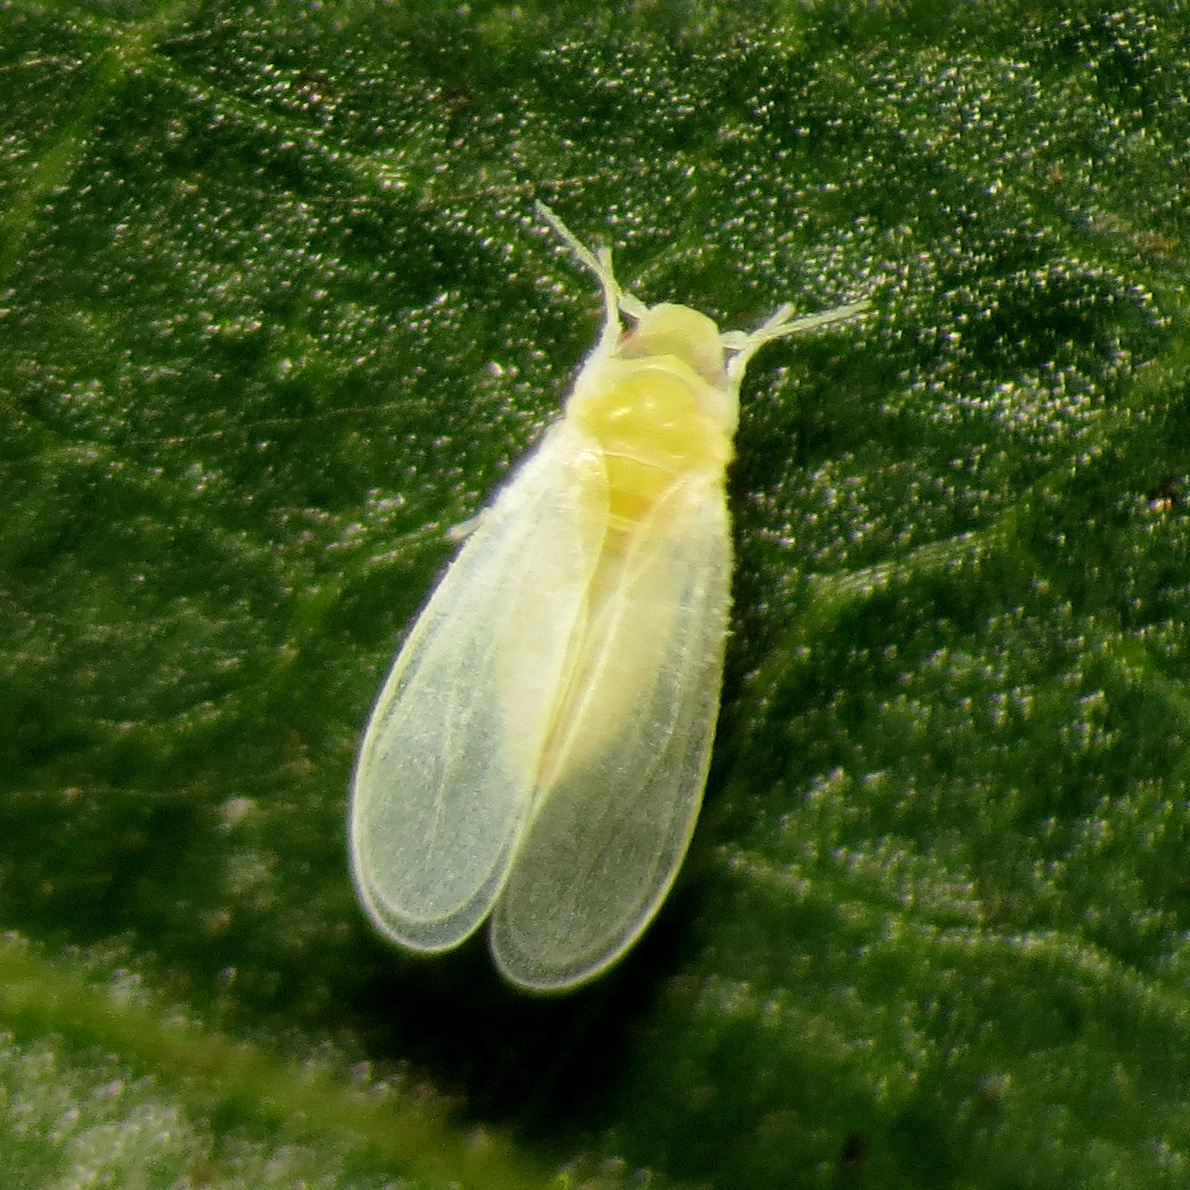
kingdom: Animalia
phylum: Arthropoda
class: Insecta
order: Hemiptera
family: Aleyrodidae
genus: Bemisia
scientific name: Bemisia tabaci
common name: Sweetpotato whitefly
